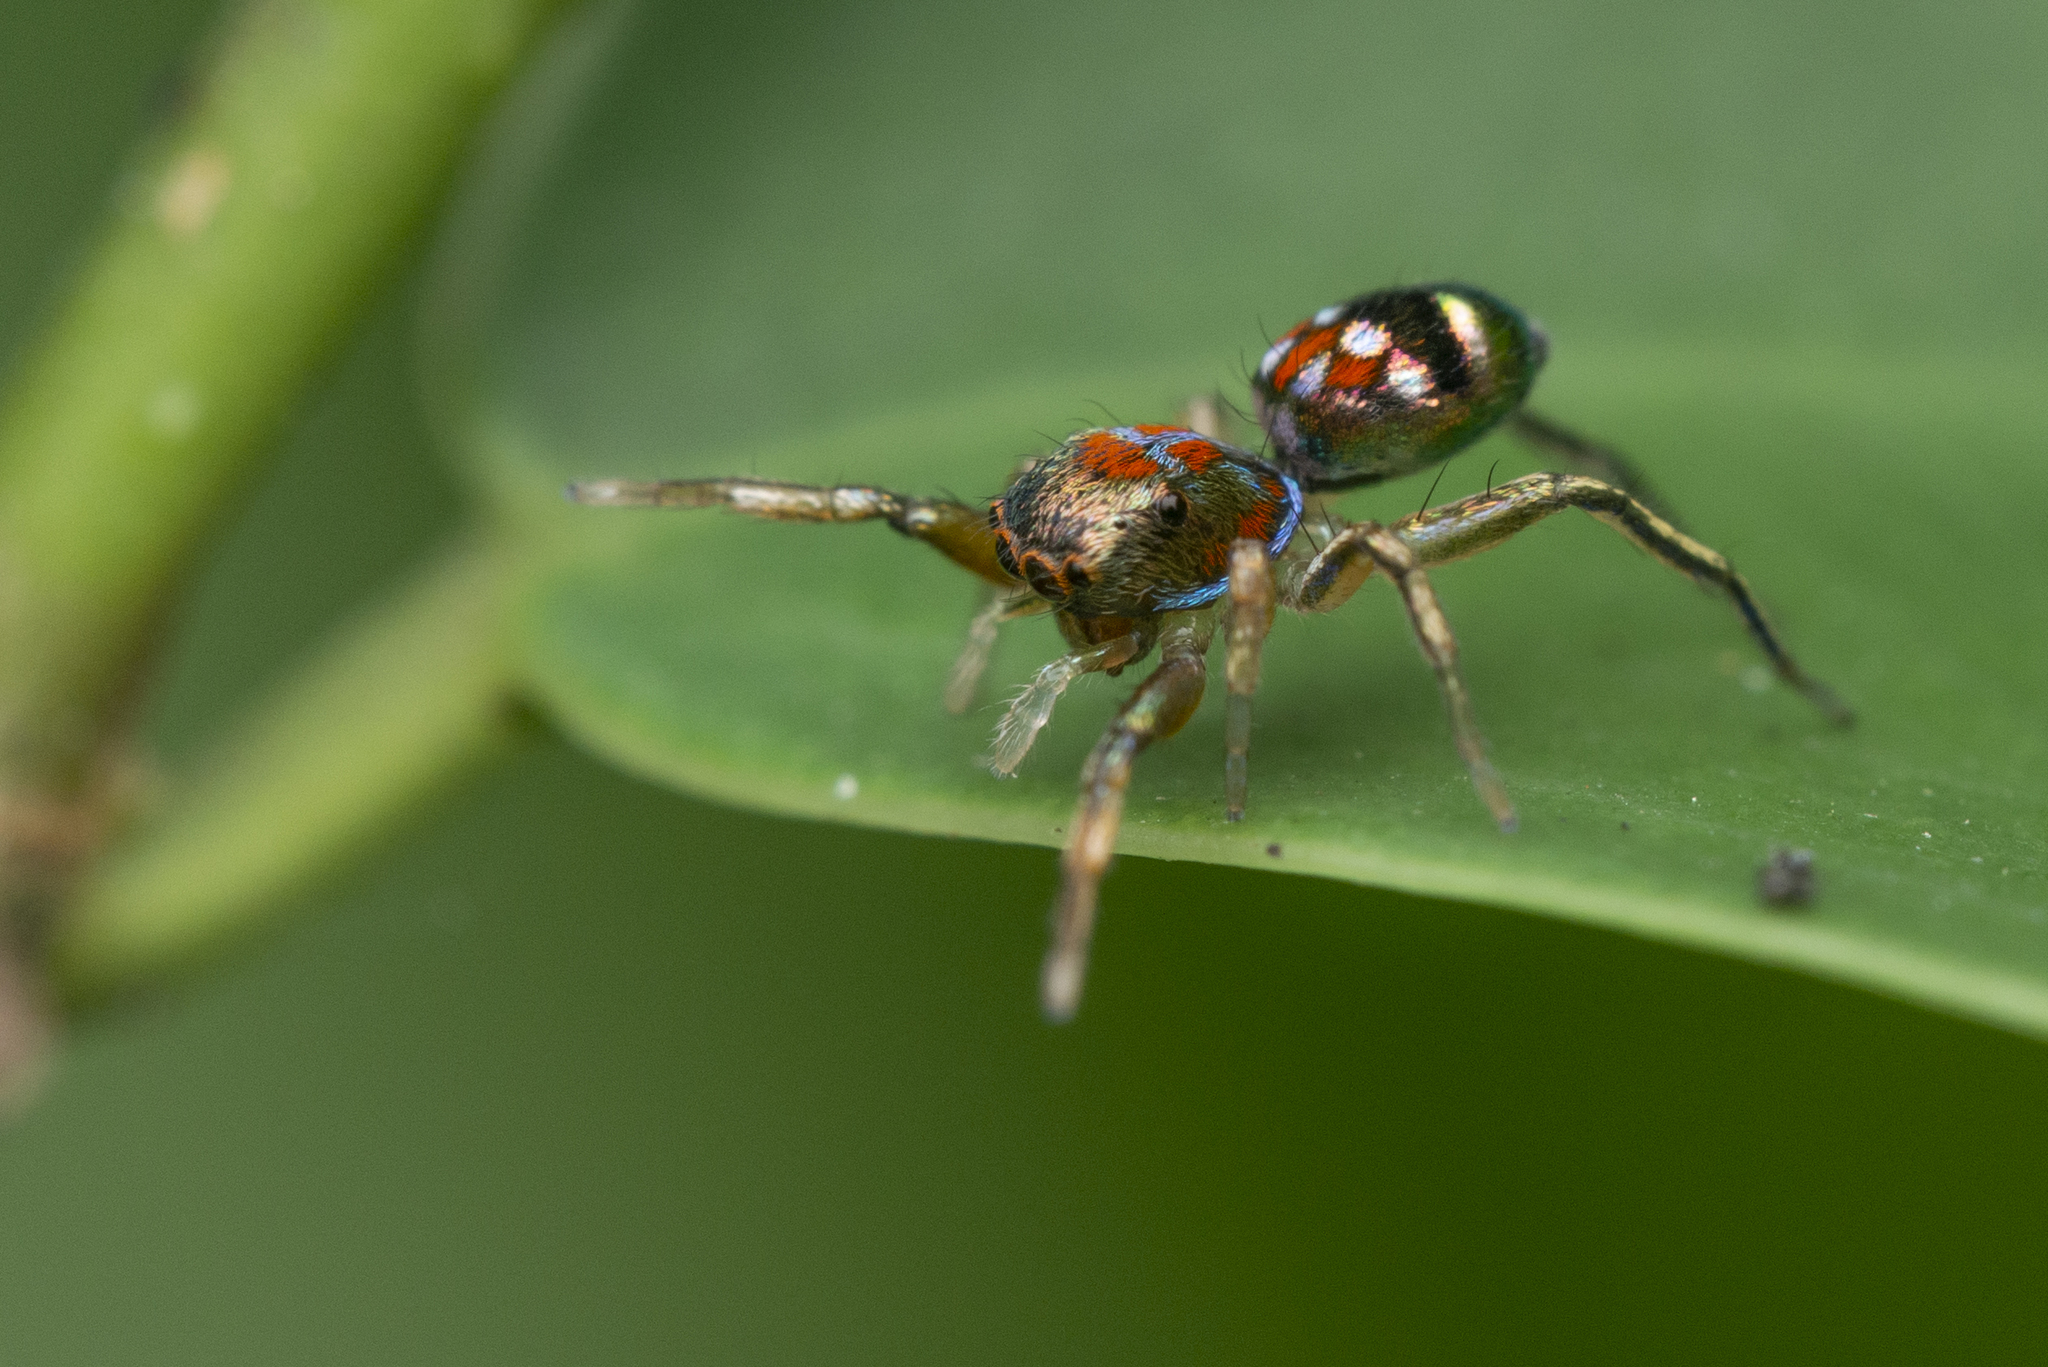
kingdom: Animalia
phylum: Arthropoda
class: Arachnida
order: Araneae
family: Salticidae
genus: Siler
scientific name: Siler collingwoodi
